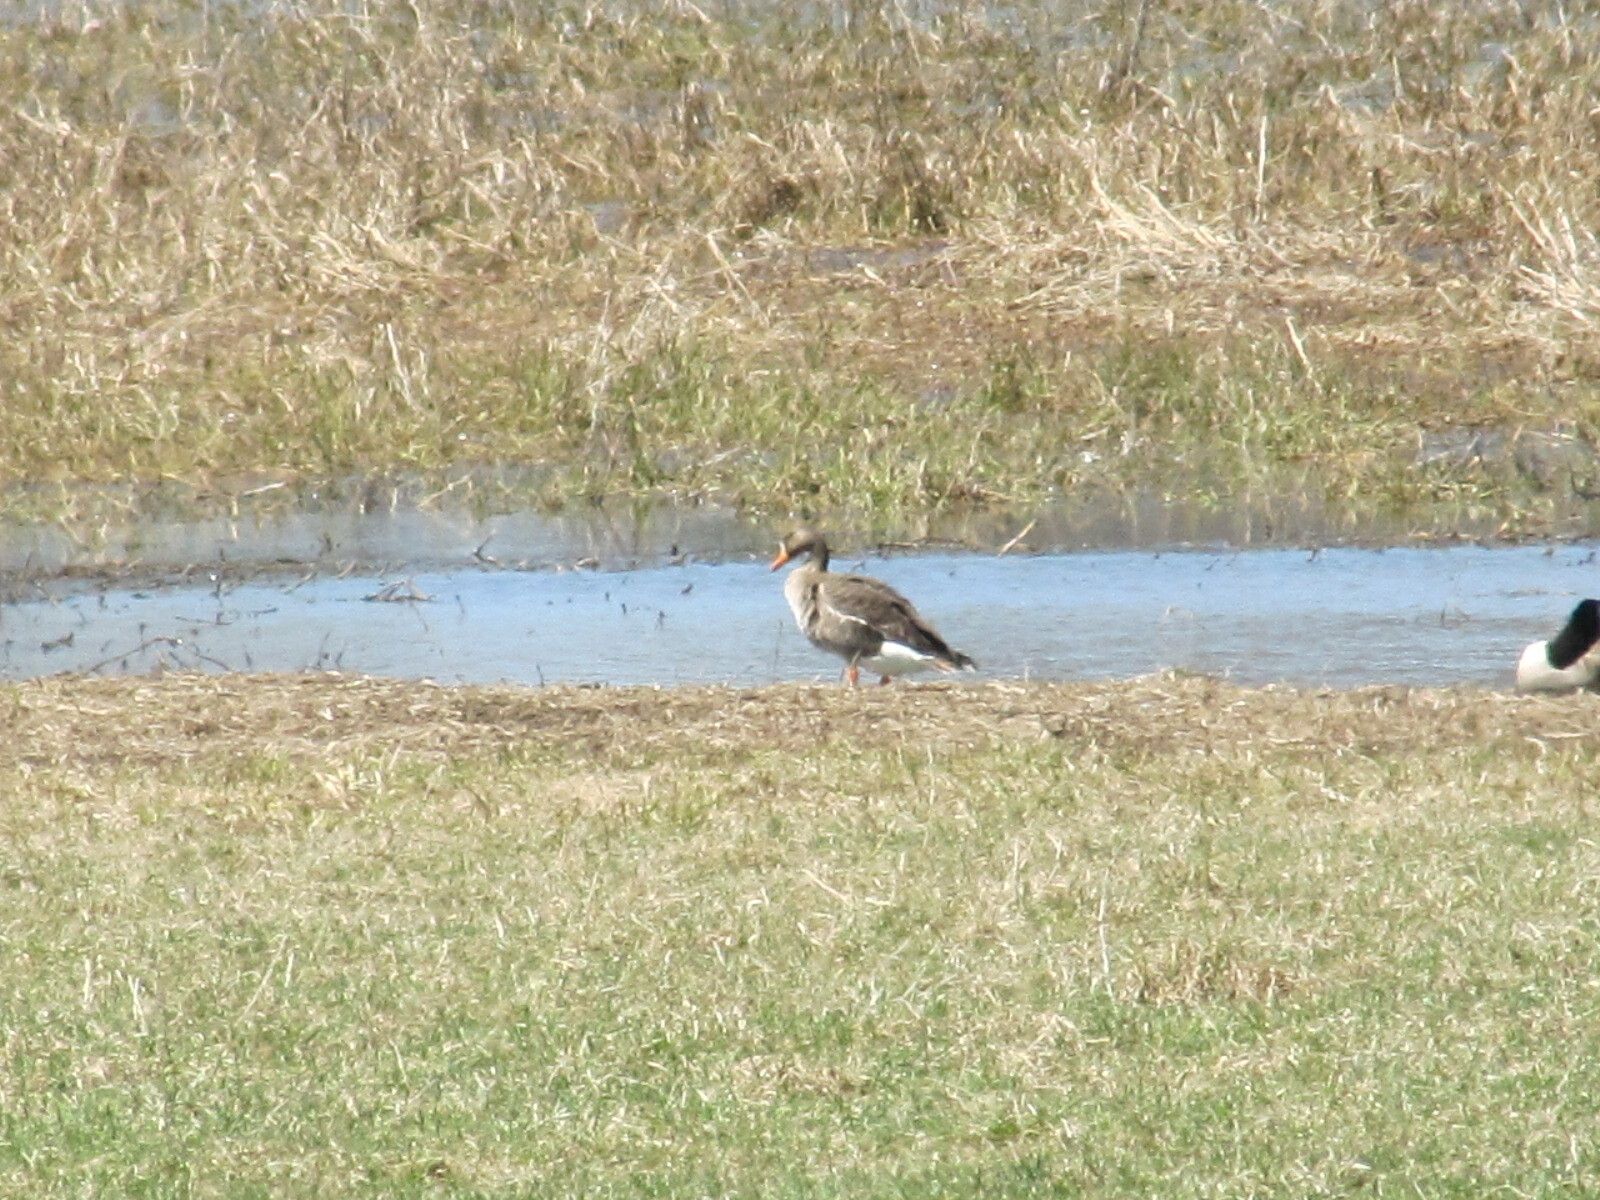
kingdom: Animalia
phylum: Chordata
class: Aves
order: Anseriformes
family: Anatidae
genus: Anser
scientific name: Anser albifrons
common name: Greater white-fronted goose
